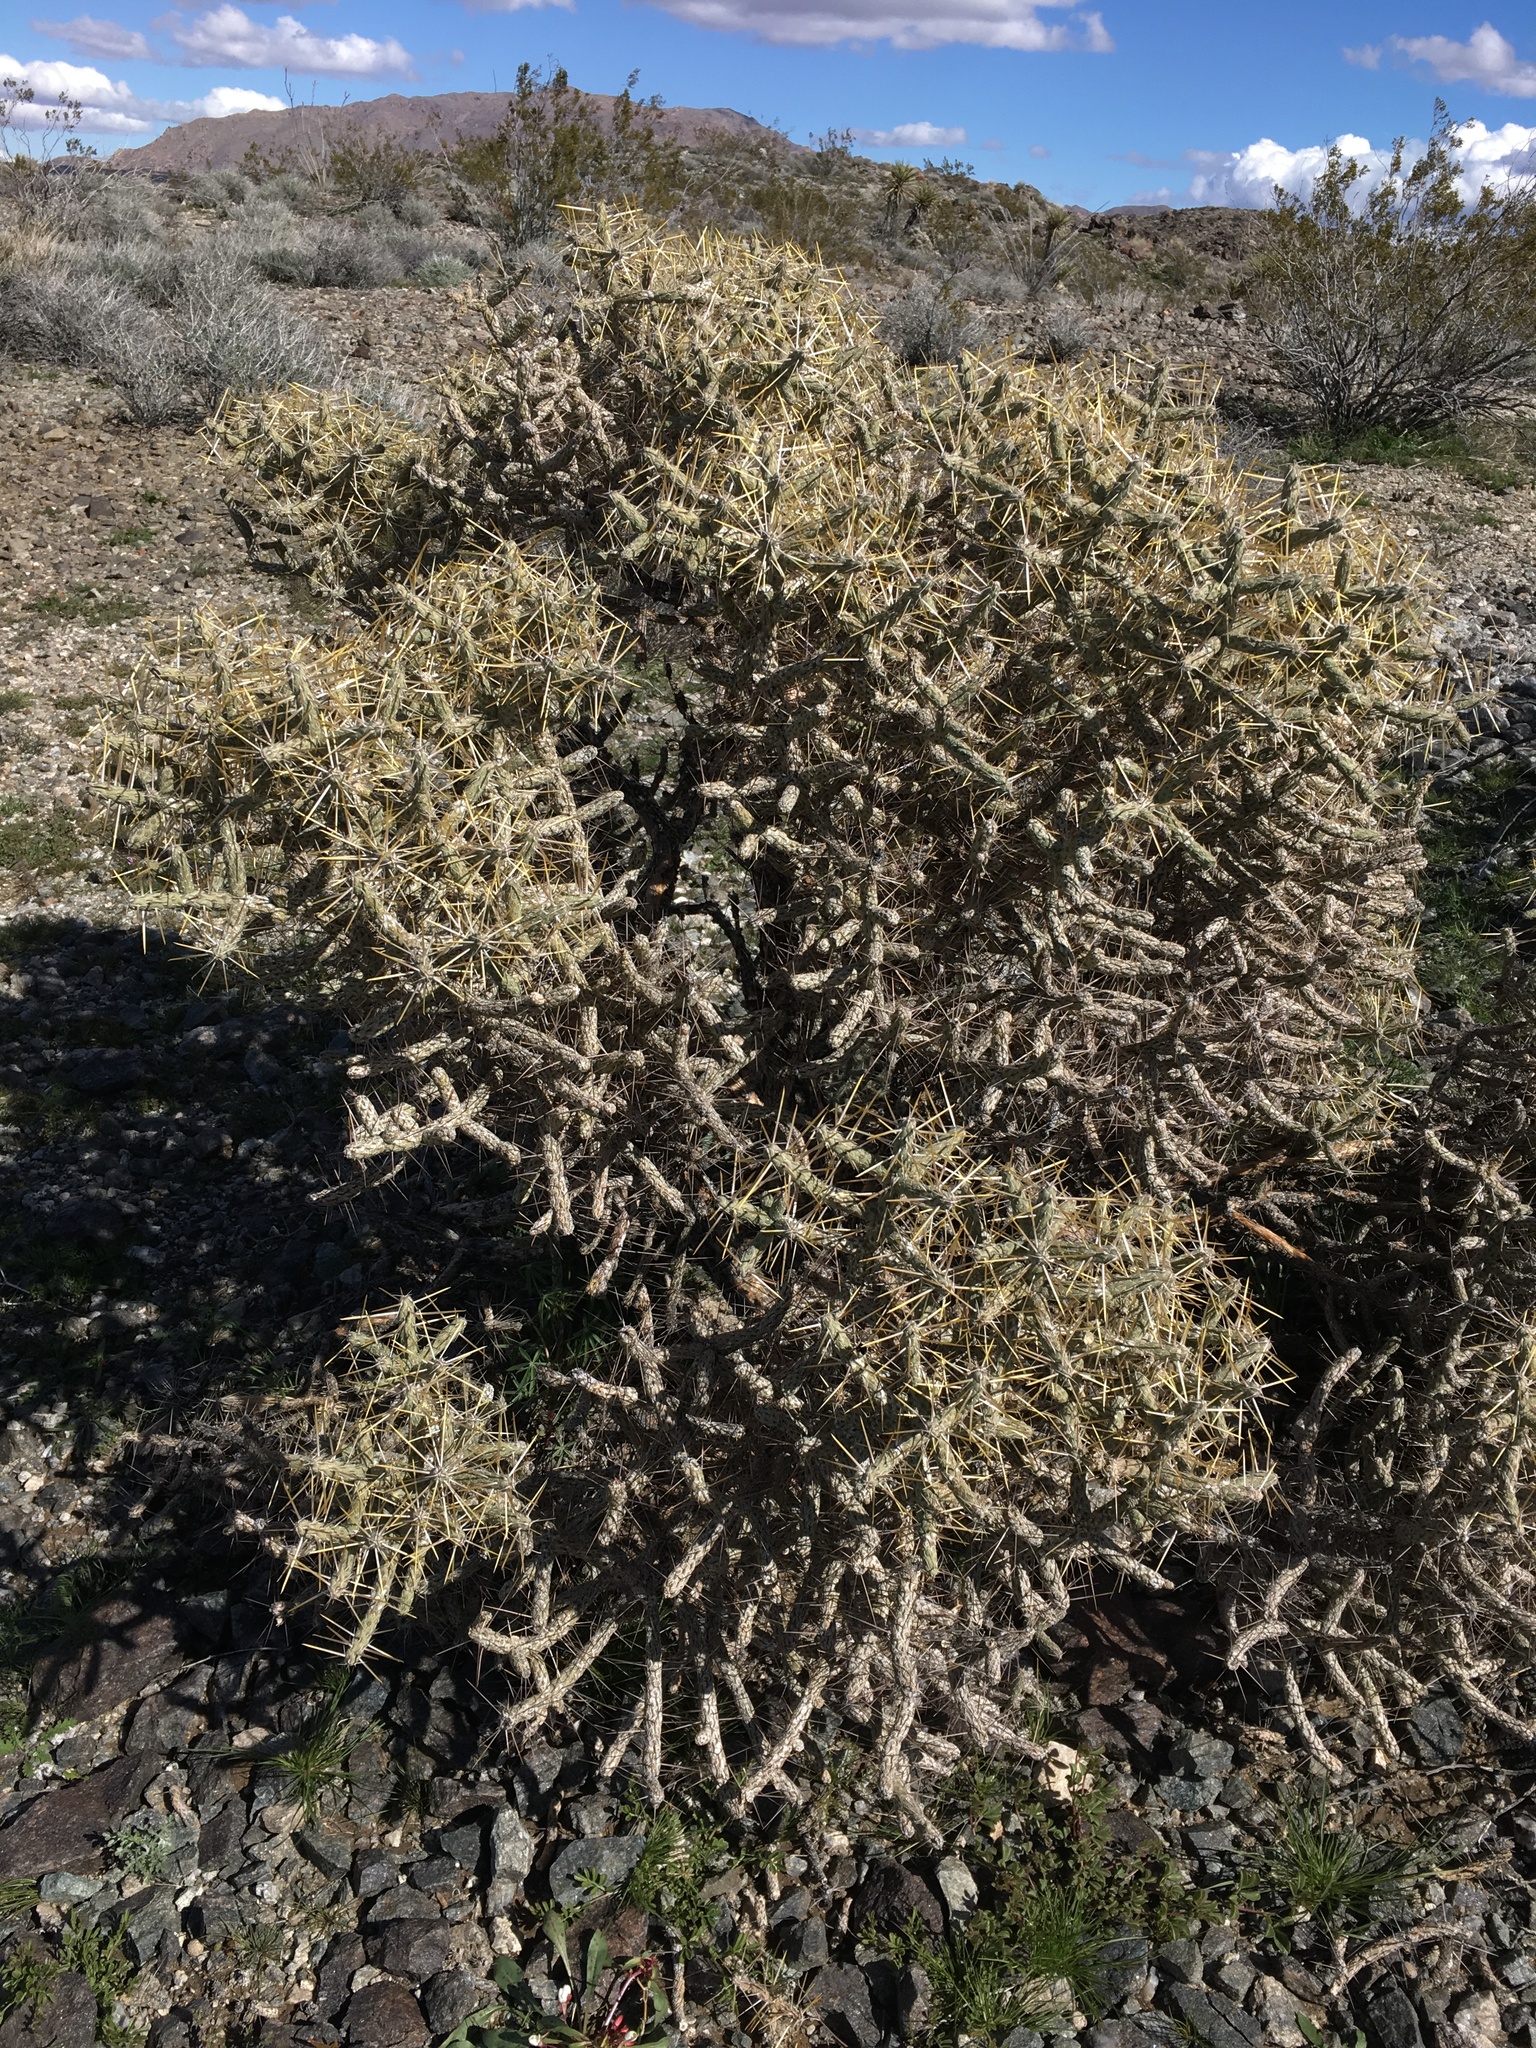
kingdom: Plantae
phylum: Tracheophyta
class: Magnoliopsida
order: Caryophyllales
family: Cactaceae
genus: Cylindropuntia
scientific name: Cylindropuntia ramosissima
